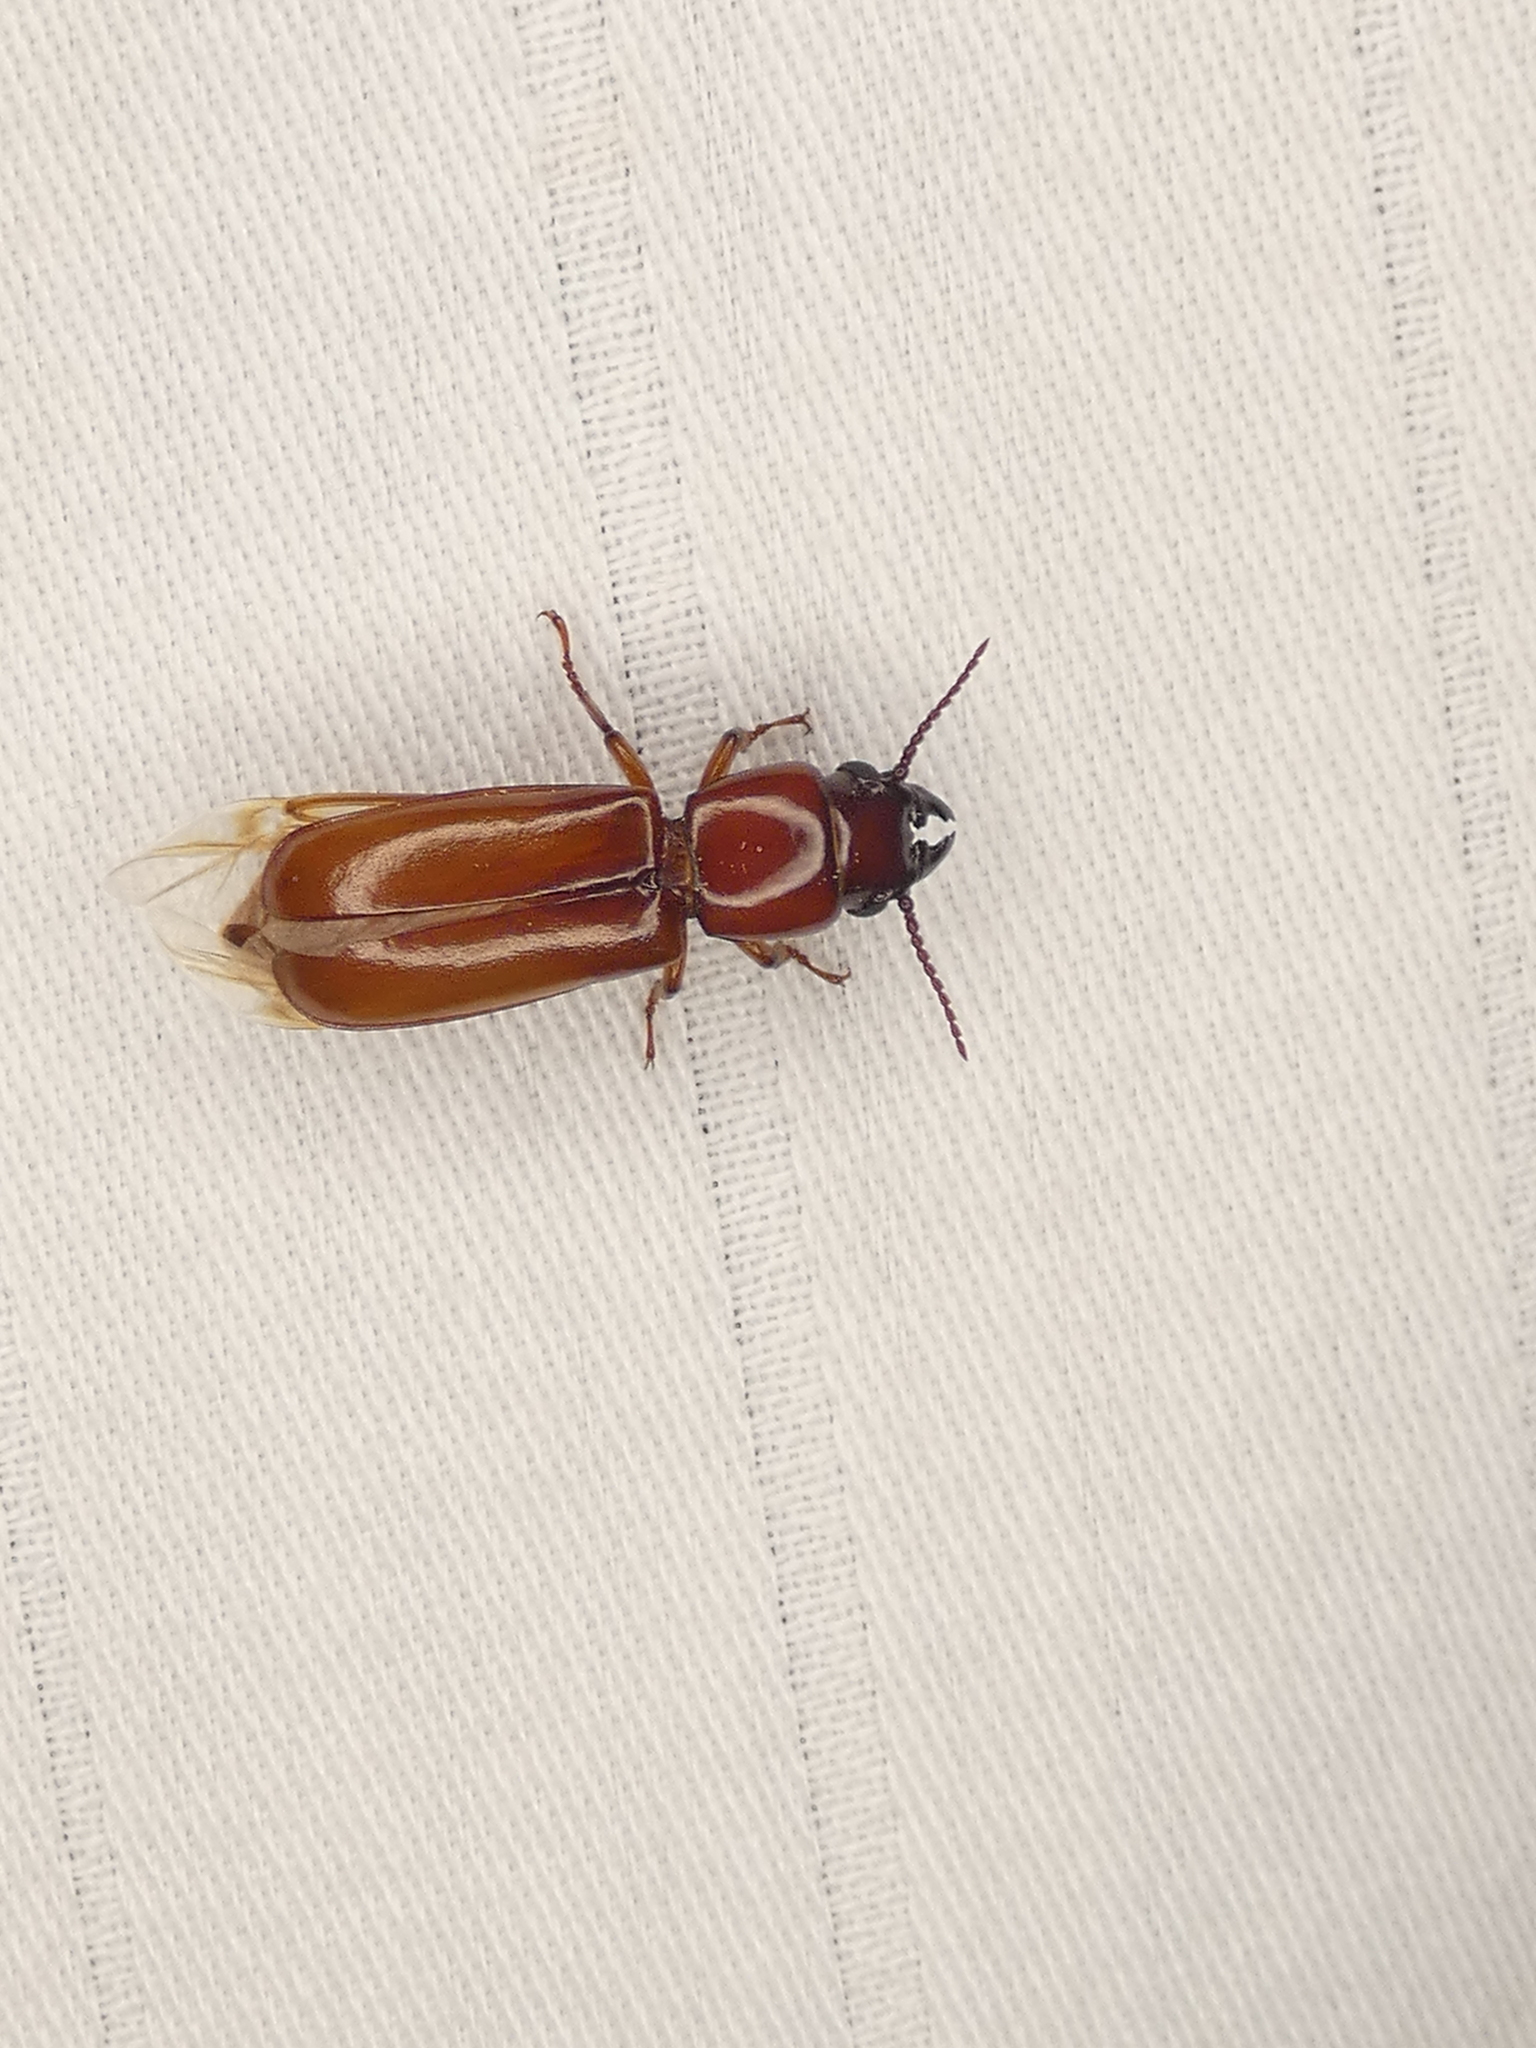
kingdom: Animalia
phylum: Arthropoda
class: Insecta
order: Coleoptera
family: Cerambycidae
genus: Parandra
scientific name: Parandra polita
